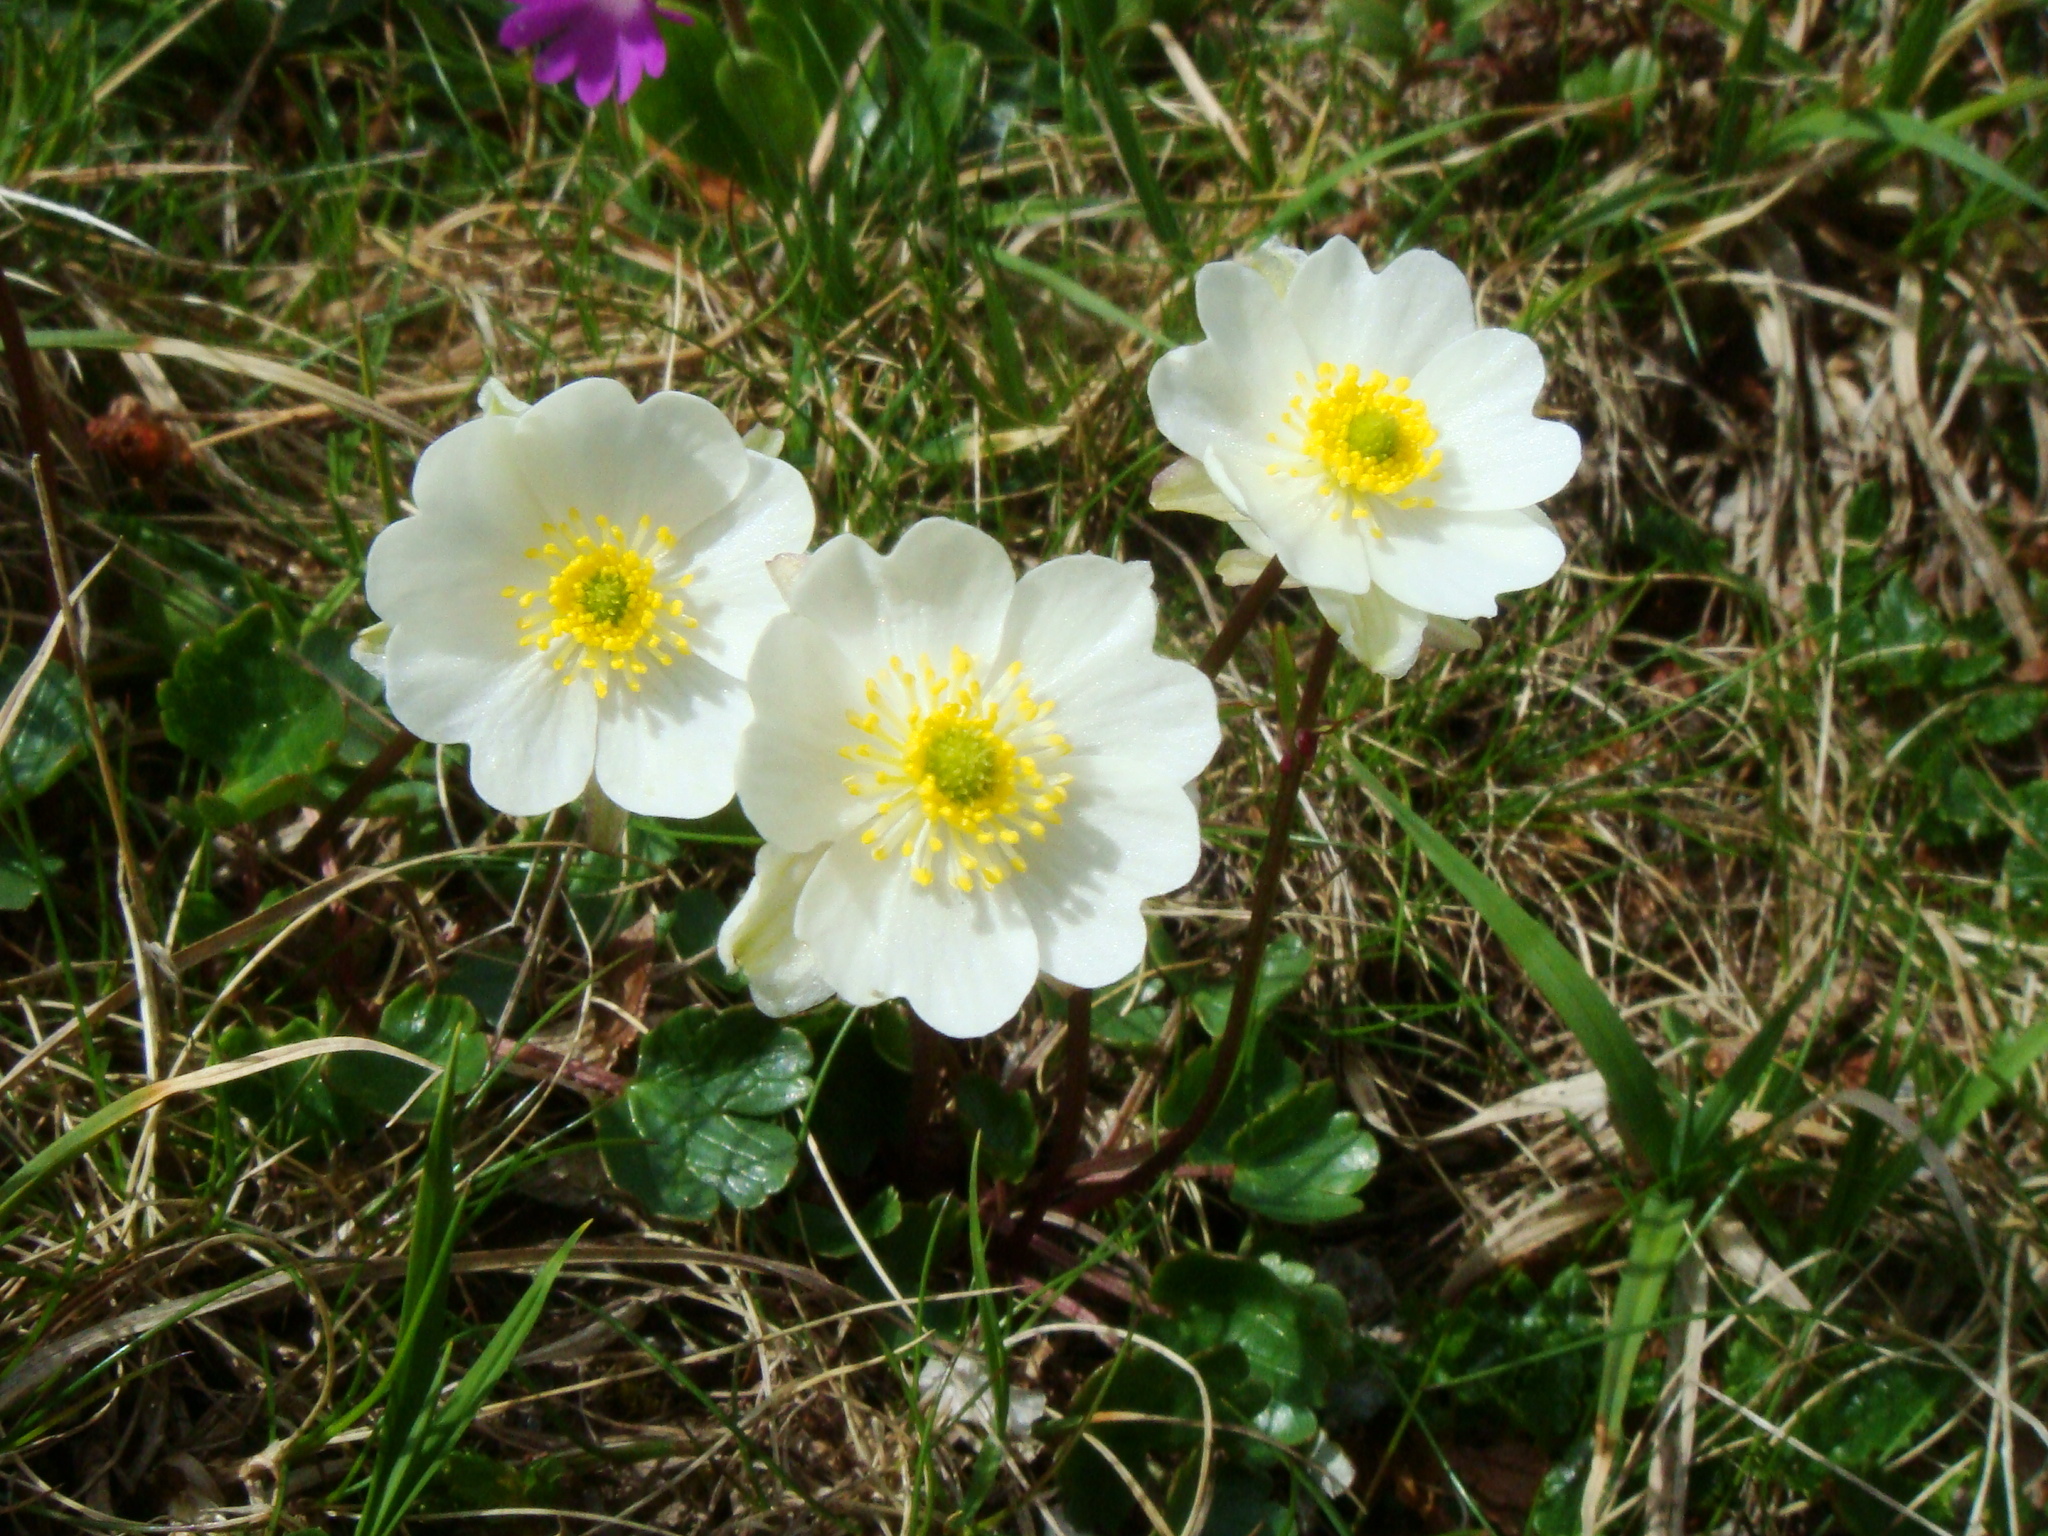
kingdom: Plantae
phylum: Tracheophyta
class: Magnoliopsida
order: Ranunculales
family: Ranunculaceae
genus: Ranunculus
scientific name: Ranunculus alpestris
